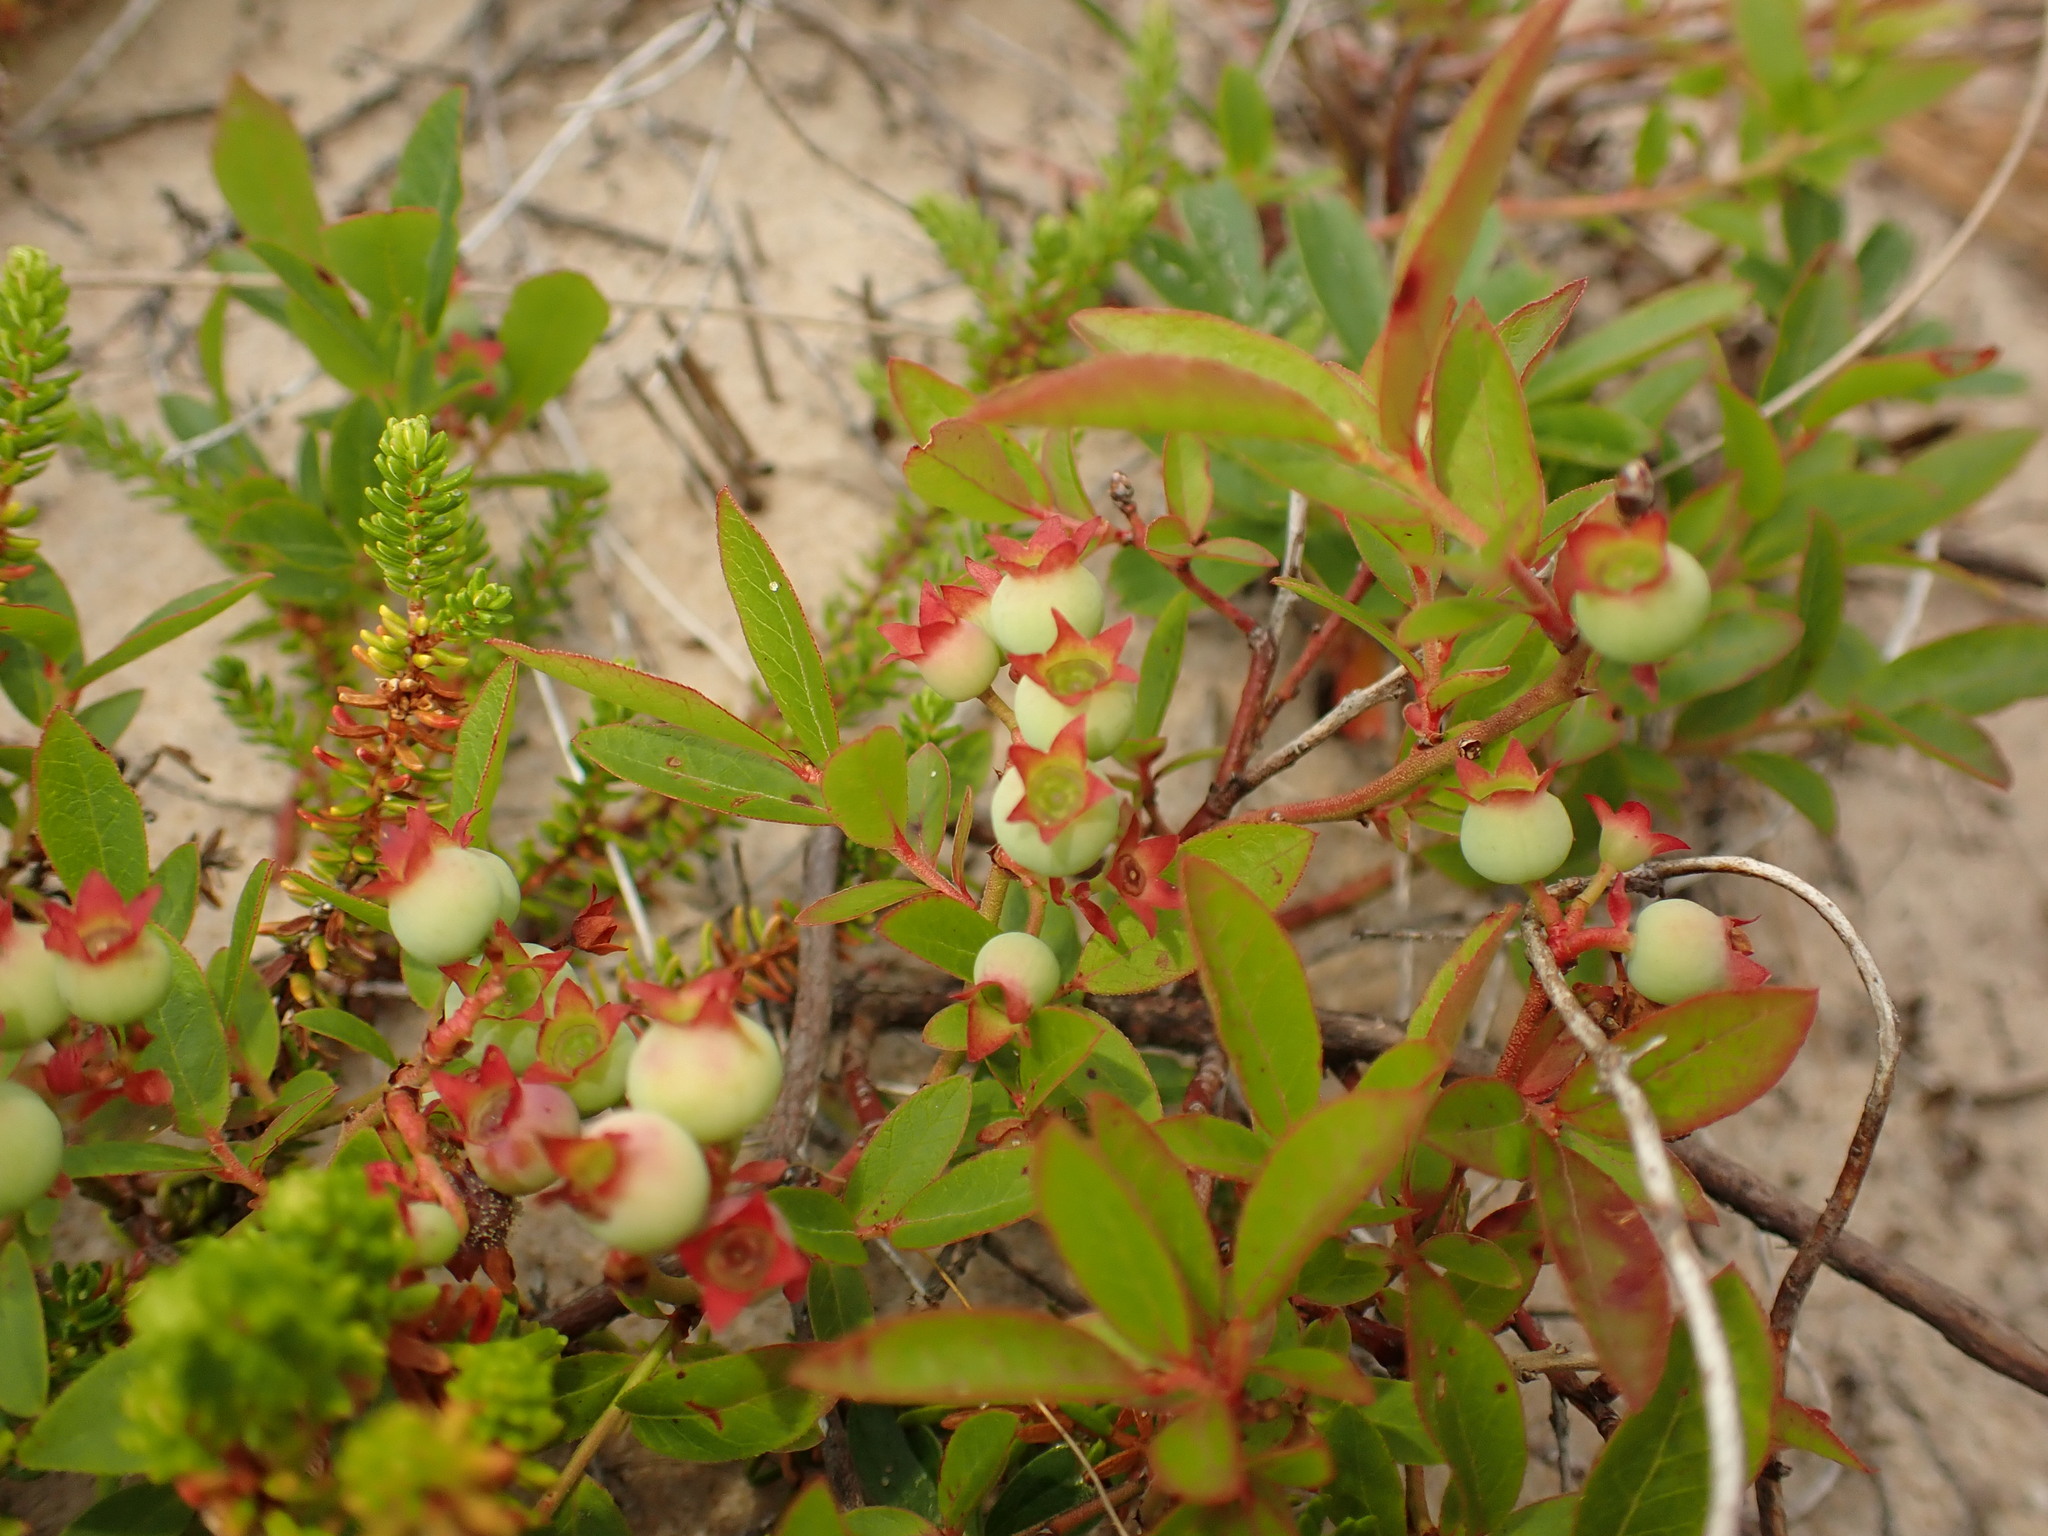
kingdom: Plantae
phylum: Tracheophyta
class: Magnoliopsida
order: Ericales
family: Ericaceae
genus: Vaccinium
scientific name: Vaccinium angustifolium
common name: Early lowbush blueberry
